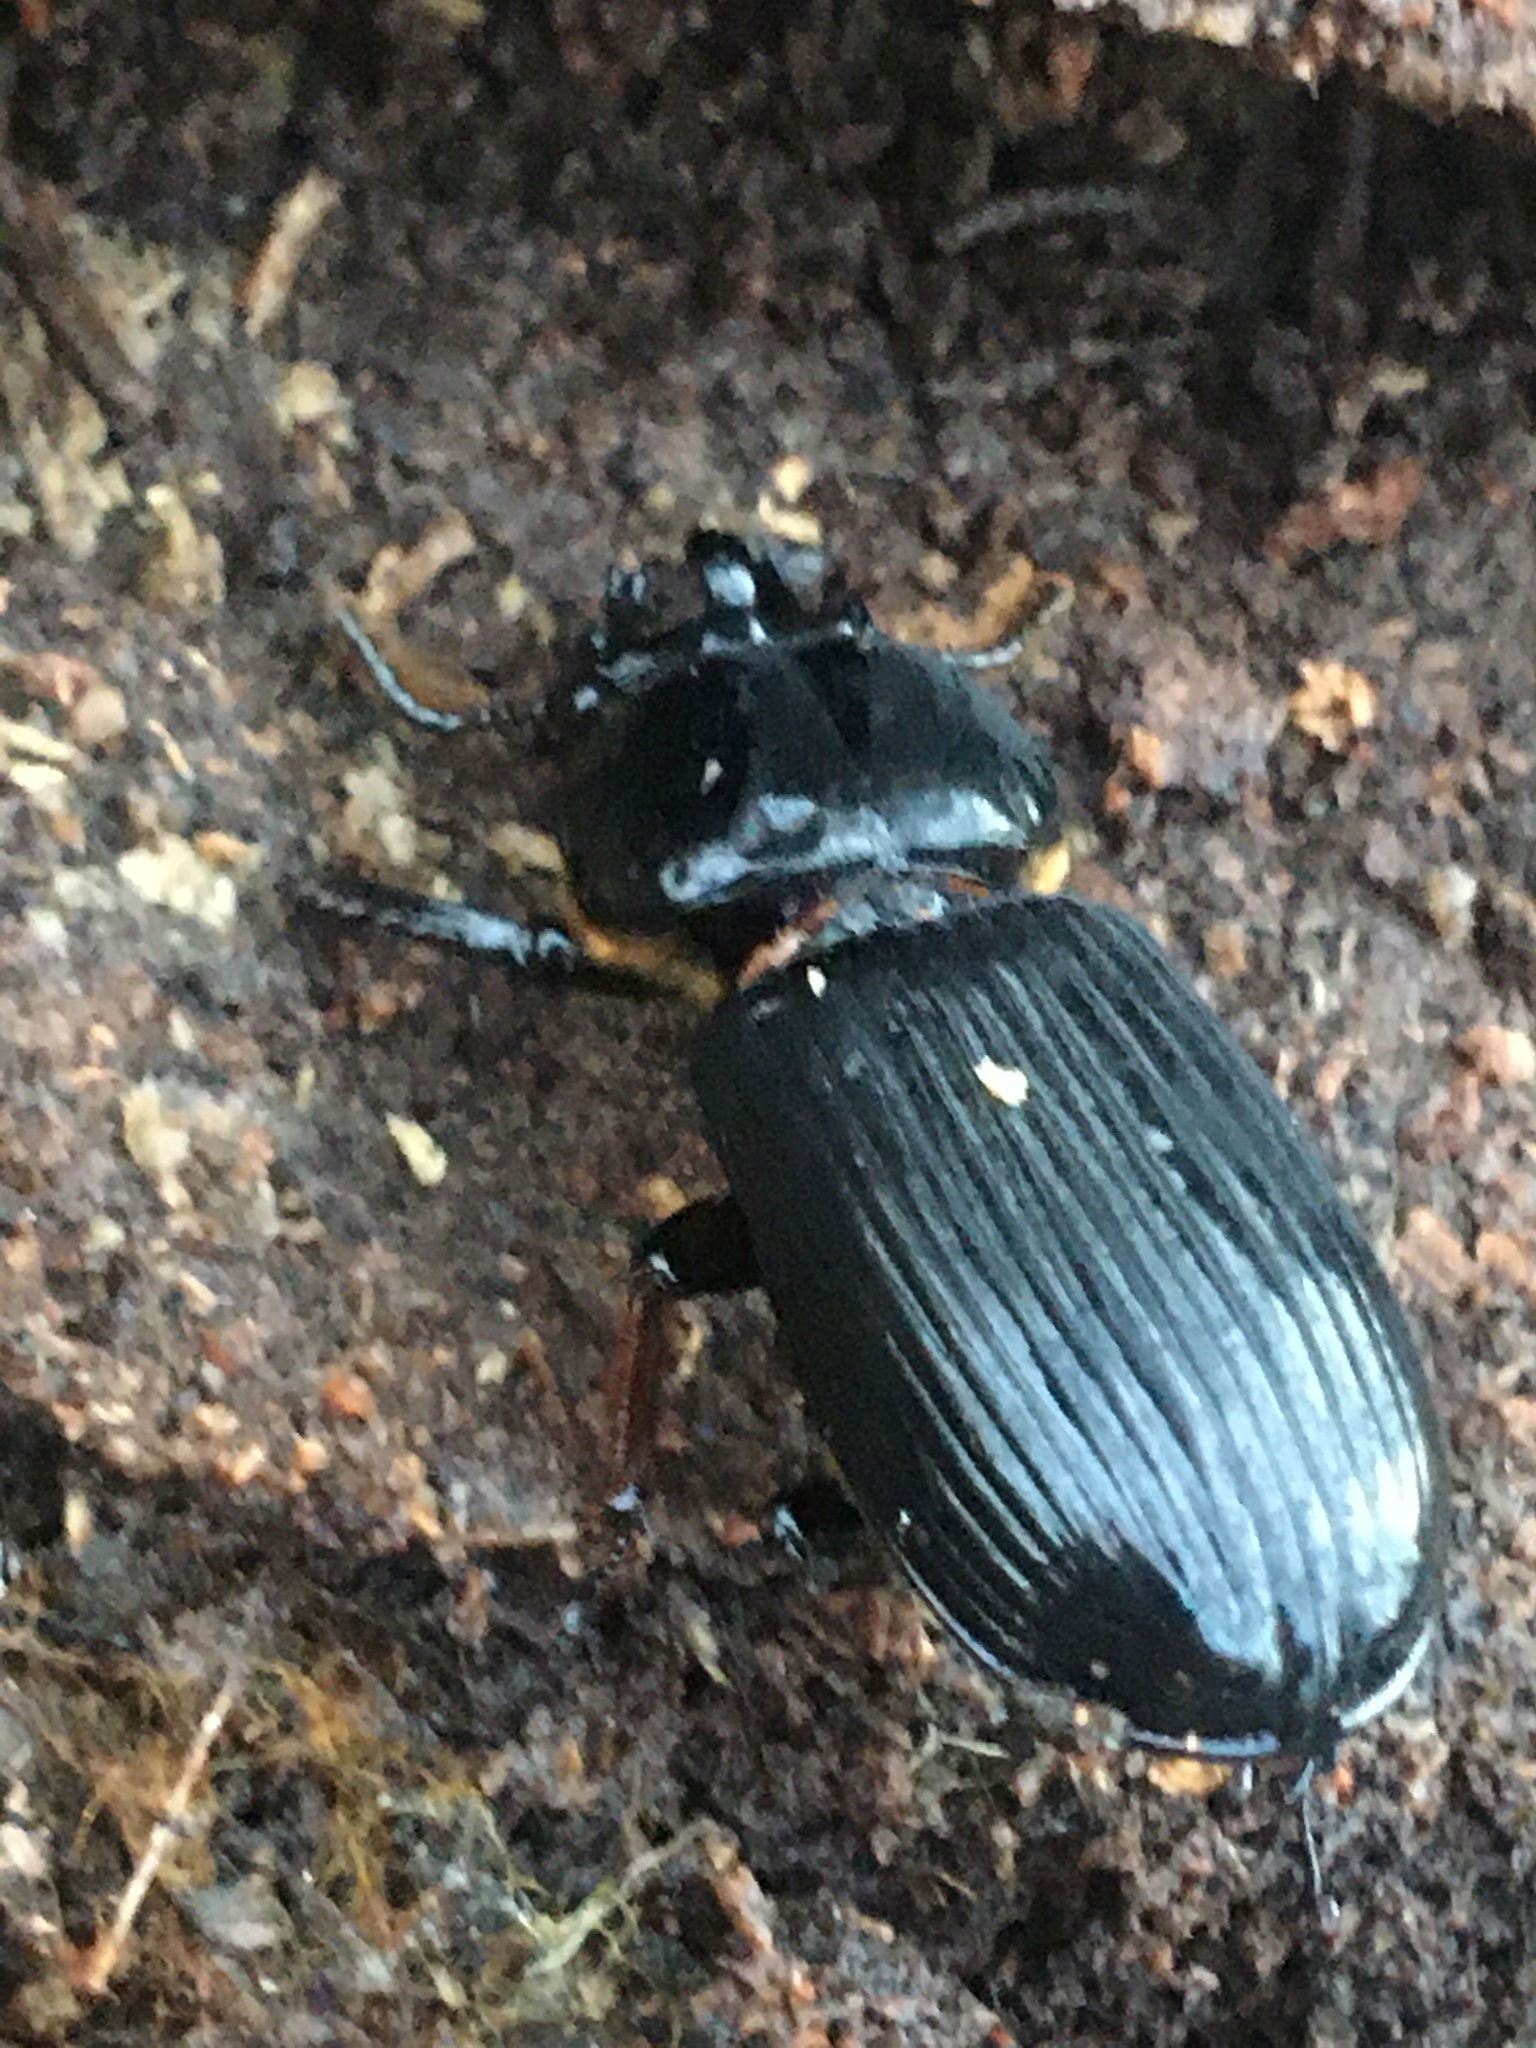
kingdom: Animalia
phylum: Arthropoda
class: Insecta
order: Coleoptera
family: Passalidae
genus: Odontotaenius
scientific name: Odontotaenius disjunctus
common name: Patent leather beetle
